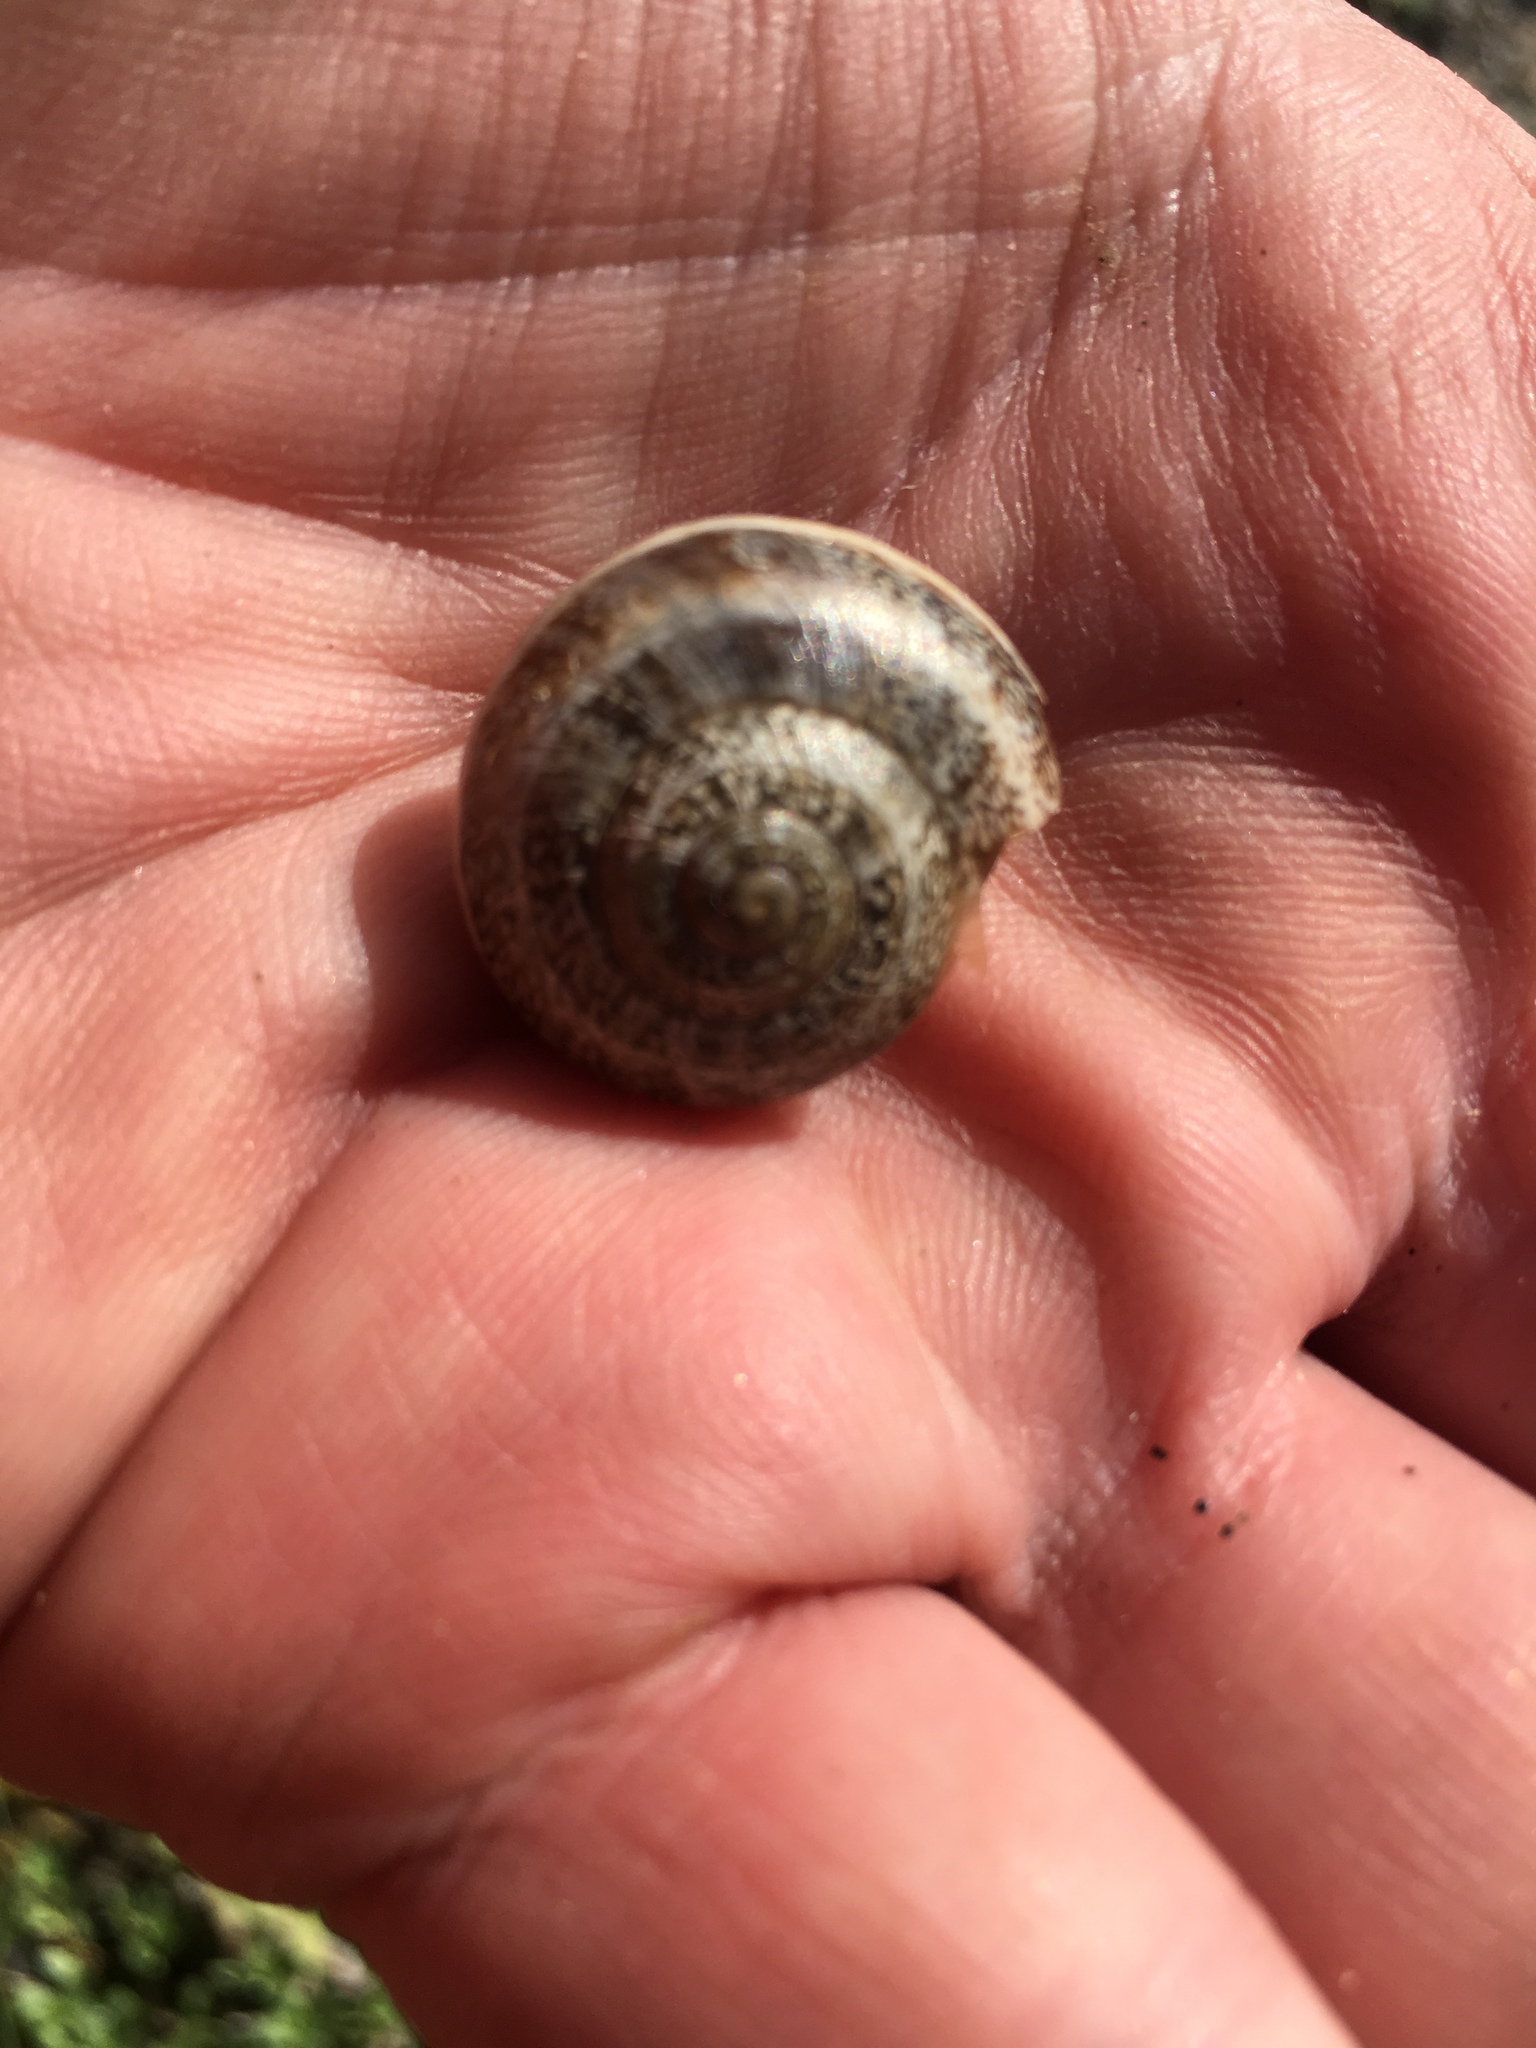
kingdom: Animalia
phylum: Mollusca
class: Gastropoda
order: Stylommatophora
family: Helicidae
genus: Otala
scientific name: Otala lactea
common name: Milk snail
